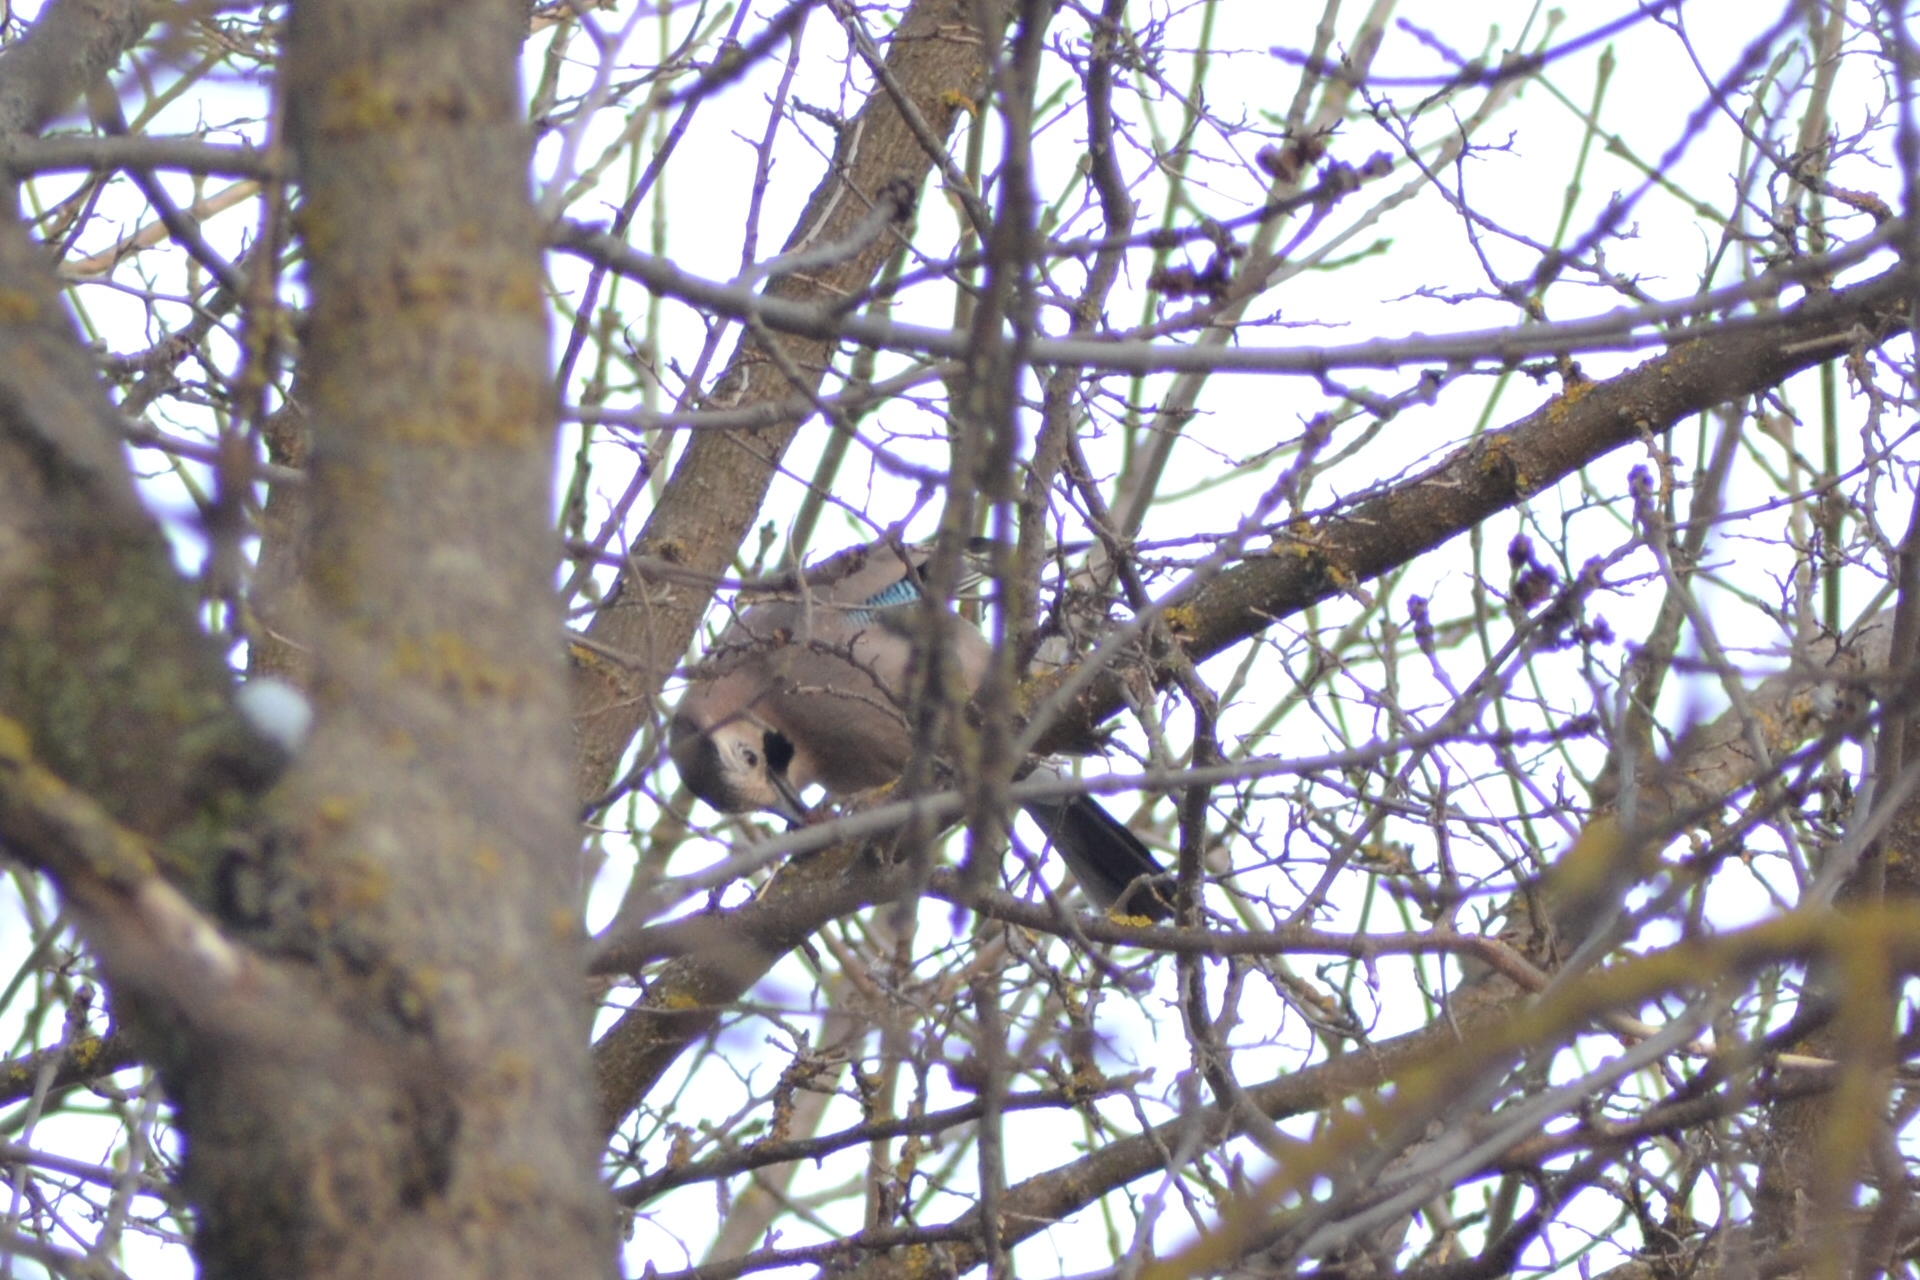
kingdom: Animalia
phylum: Chordata
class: Aves
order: Passeriformes
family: Corvidae
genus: Garrulus
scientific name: Garrulus glandarius
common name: Eurasian jay
